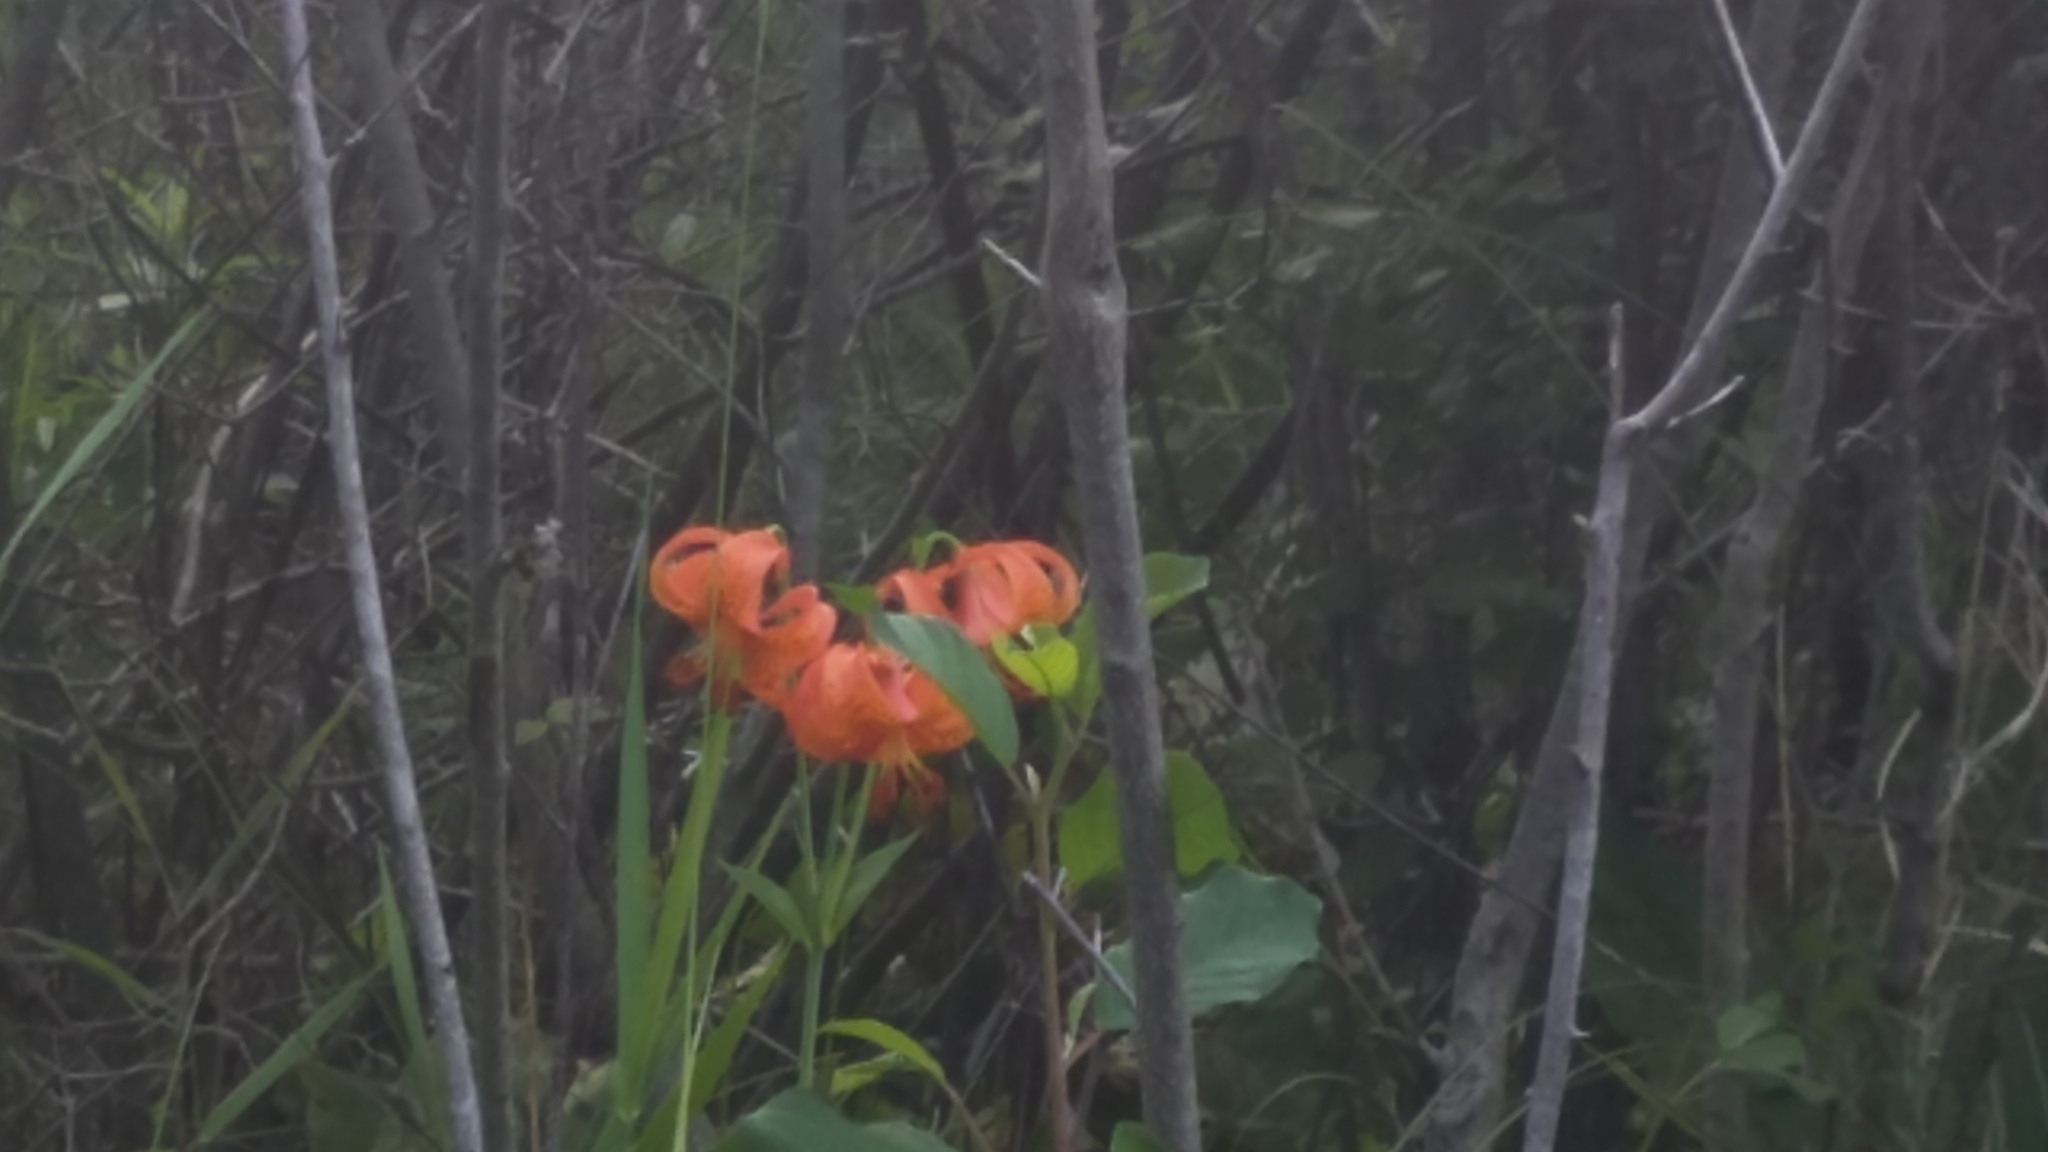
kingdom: Plantae
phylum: Tracheophyta
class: Liliopsida
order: Liliales
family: Liliaceae
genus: Lilium
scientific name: Lilium michiganense
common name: Michigan lily
